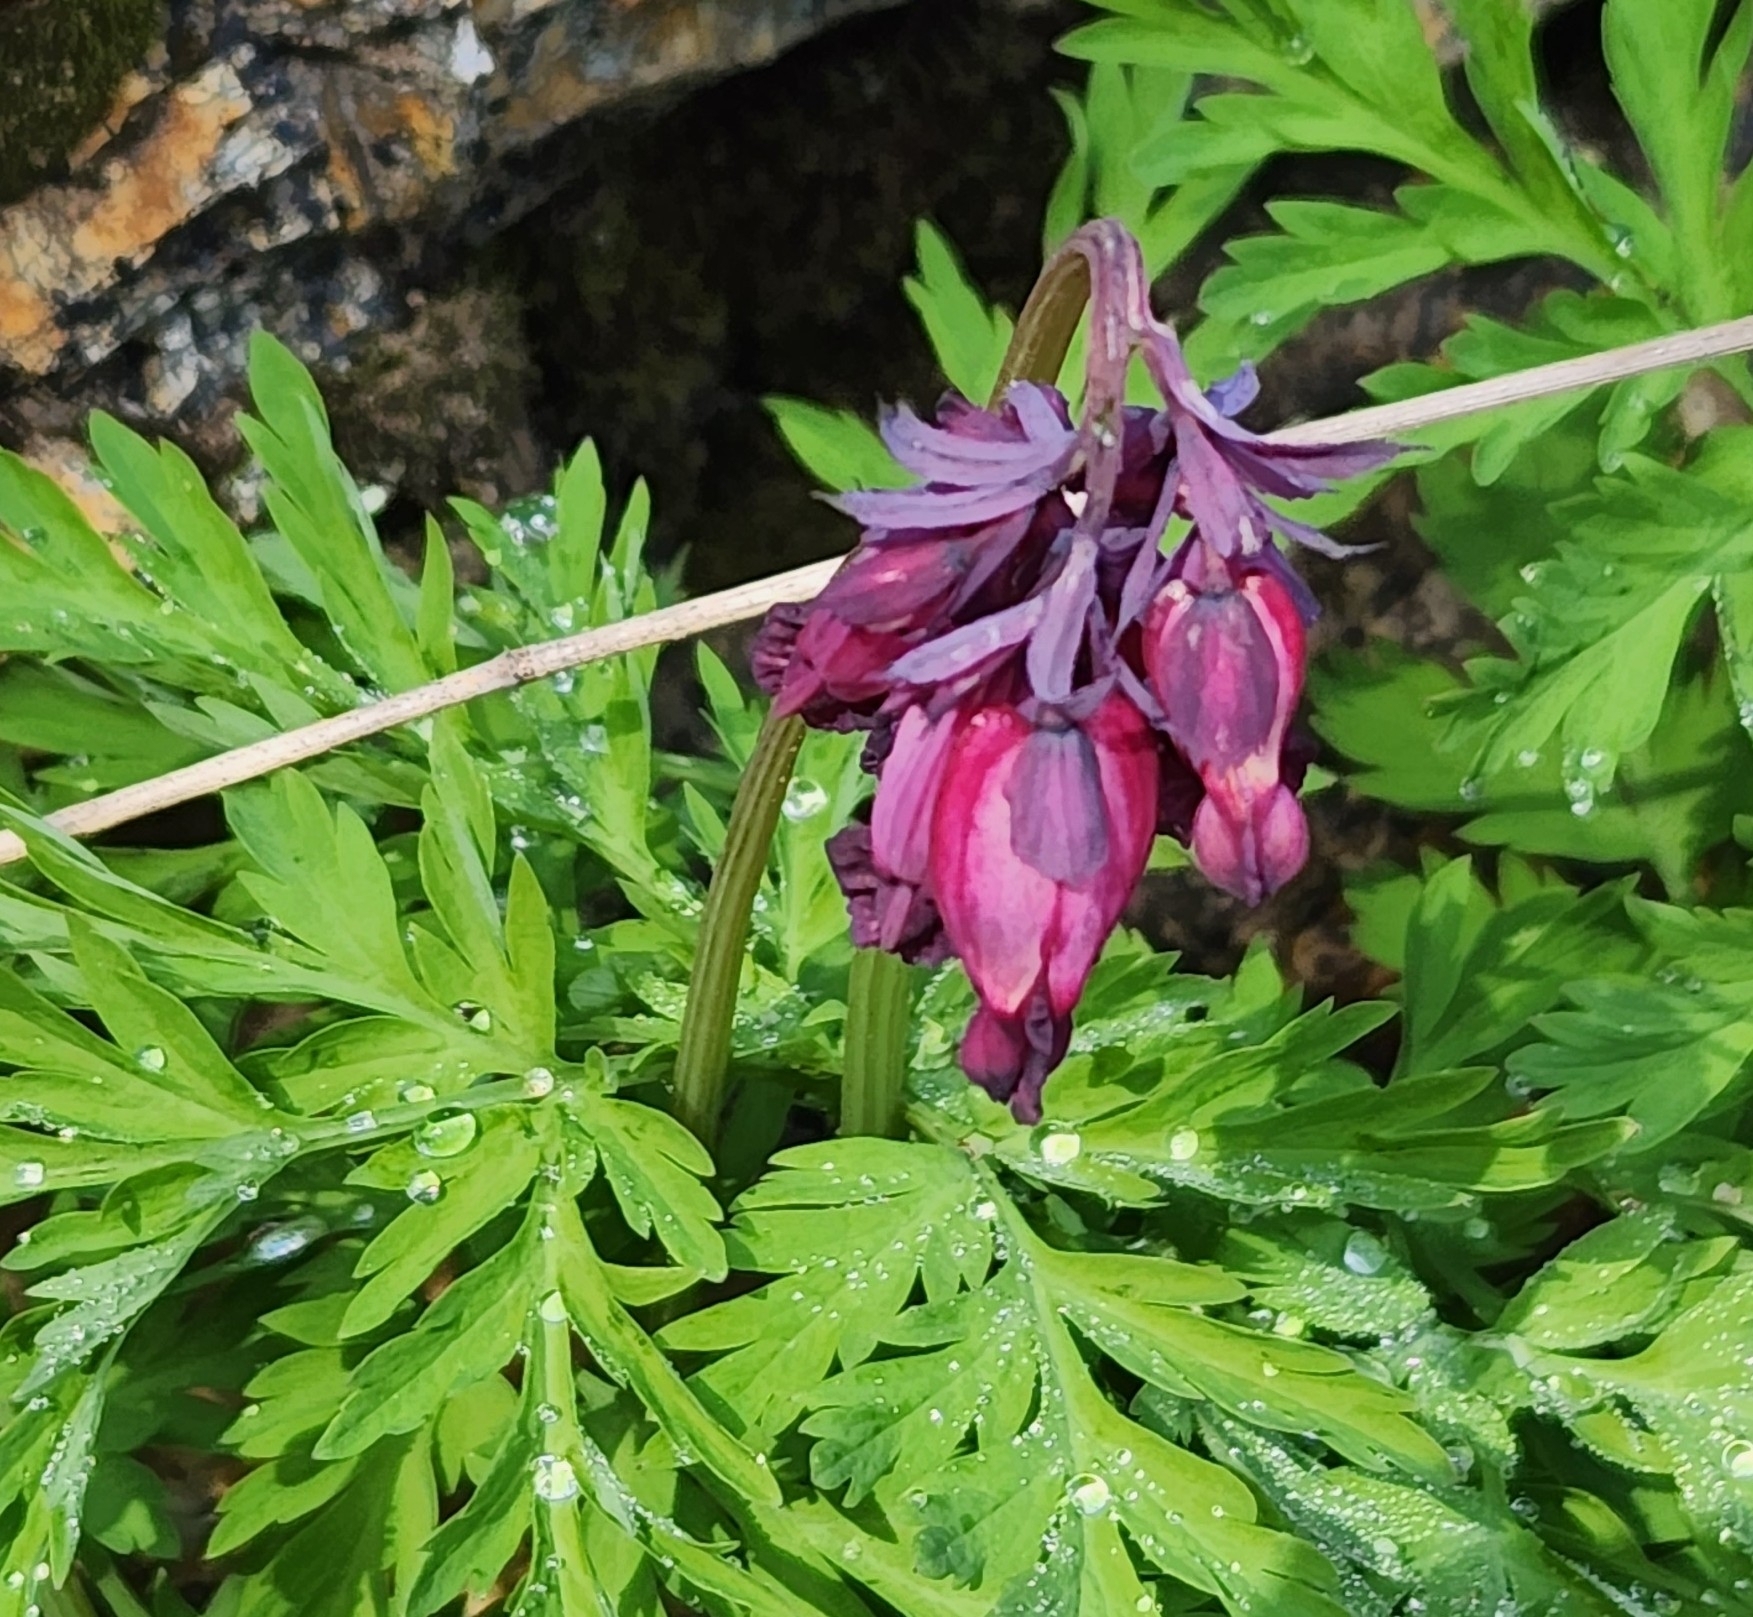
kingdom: Plantae
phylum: Tracheophyta
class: Magnoliopsida
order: Ranunculales
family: Papaveraceae
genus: Dicentra
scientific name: Dicentra formosa
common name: Bleeding-heart
